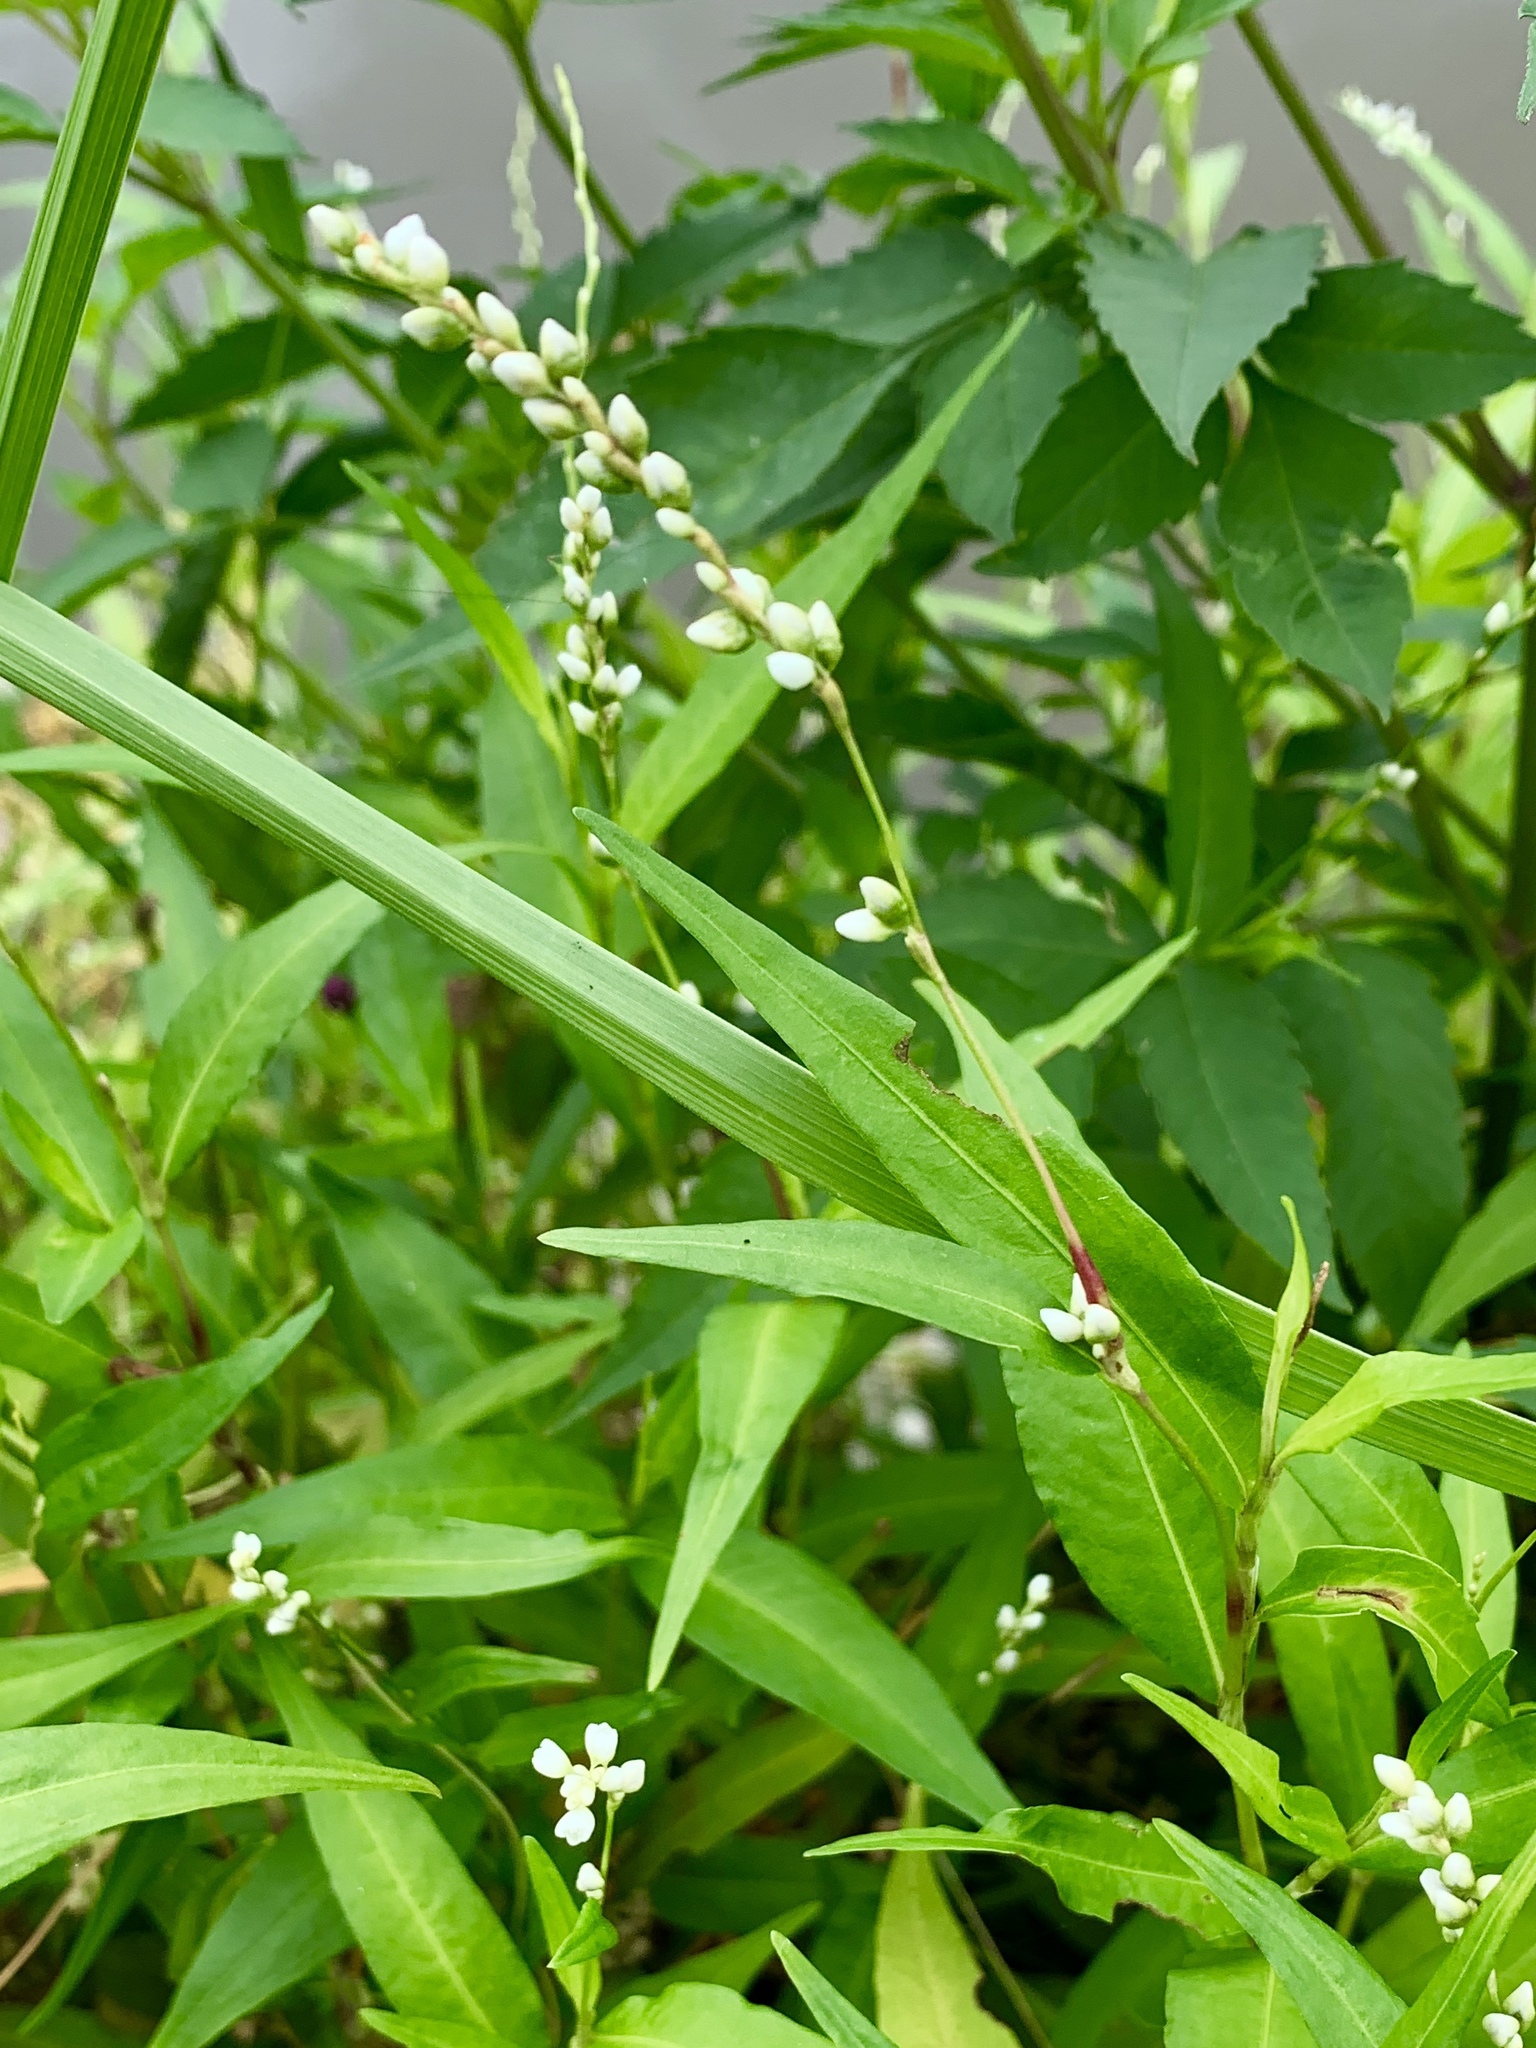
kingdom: Plantae
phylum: Tracheophyta
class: Magnoliopsida
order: Caryophyllales
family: Polygonaceae
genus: Persicaria
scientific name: Persicaria punctata
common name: Dotted smartweed
